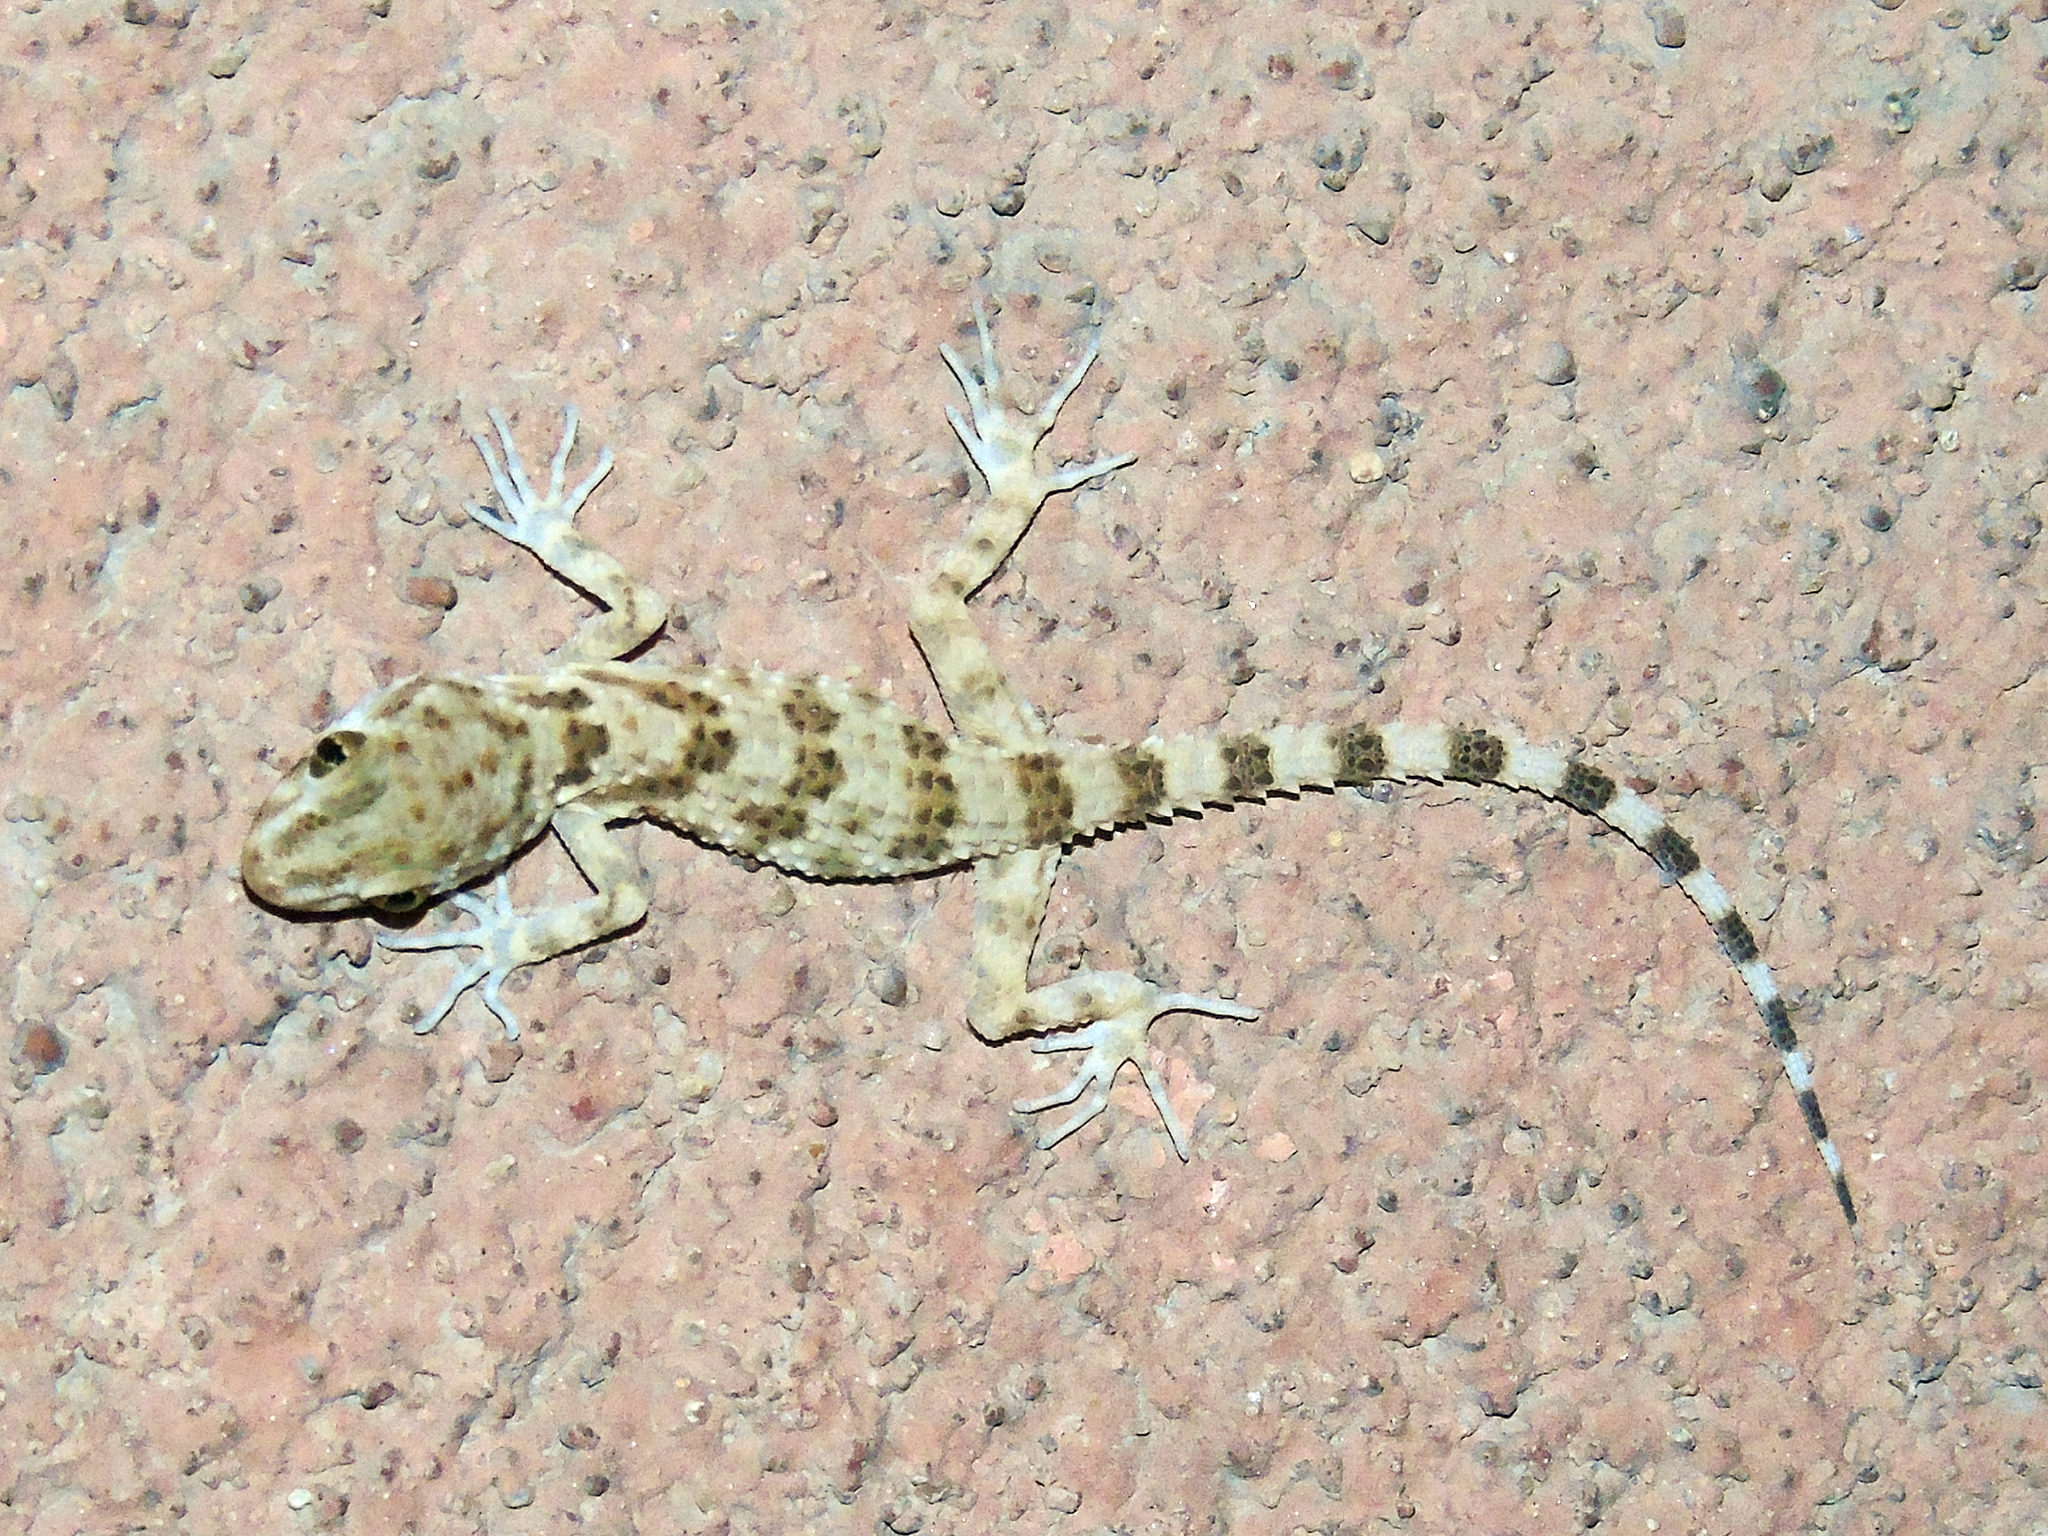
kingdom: Animalia
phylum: Chordata
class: Squamata
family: Gekkonidae
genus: Tenuidactylus
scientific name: Tenuidactylus caspius
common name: Caspian bent-toed gecko
